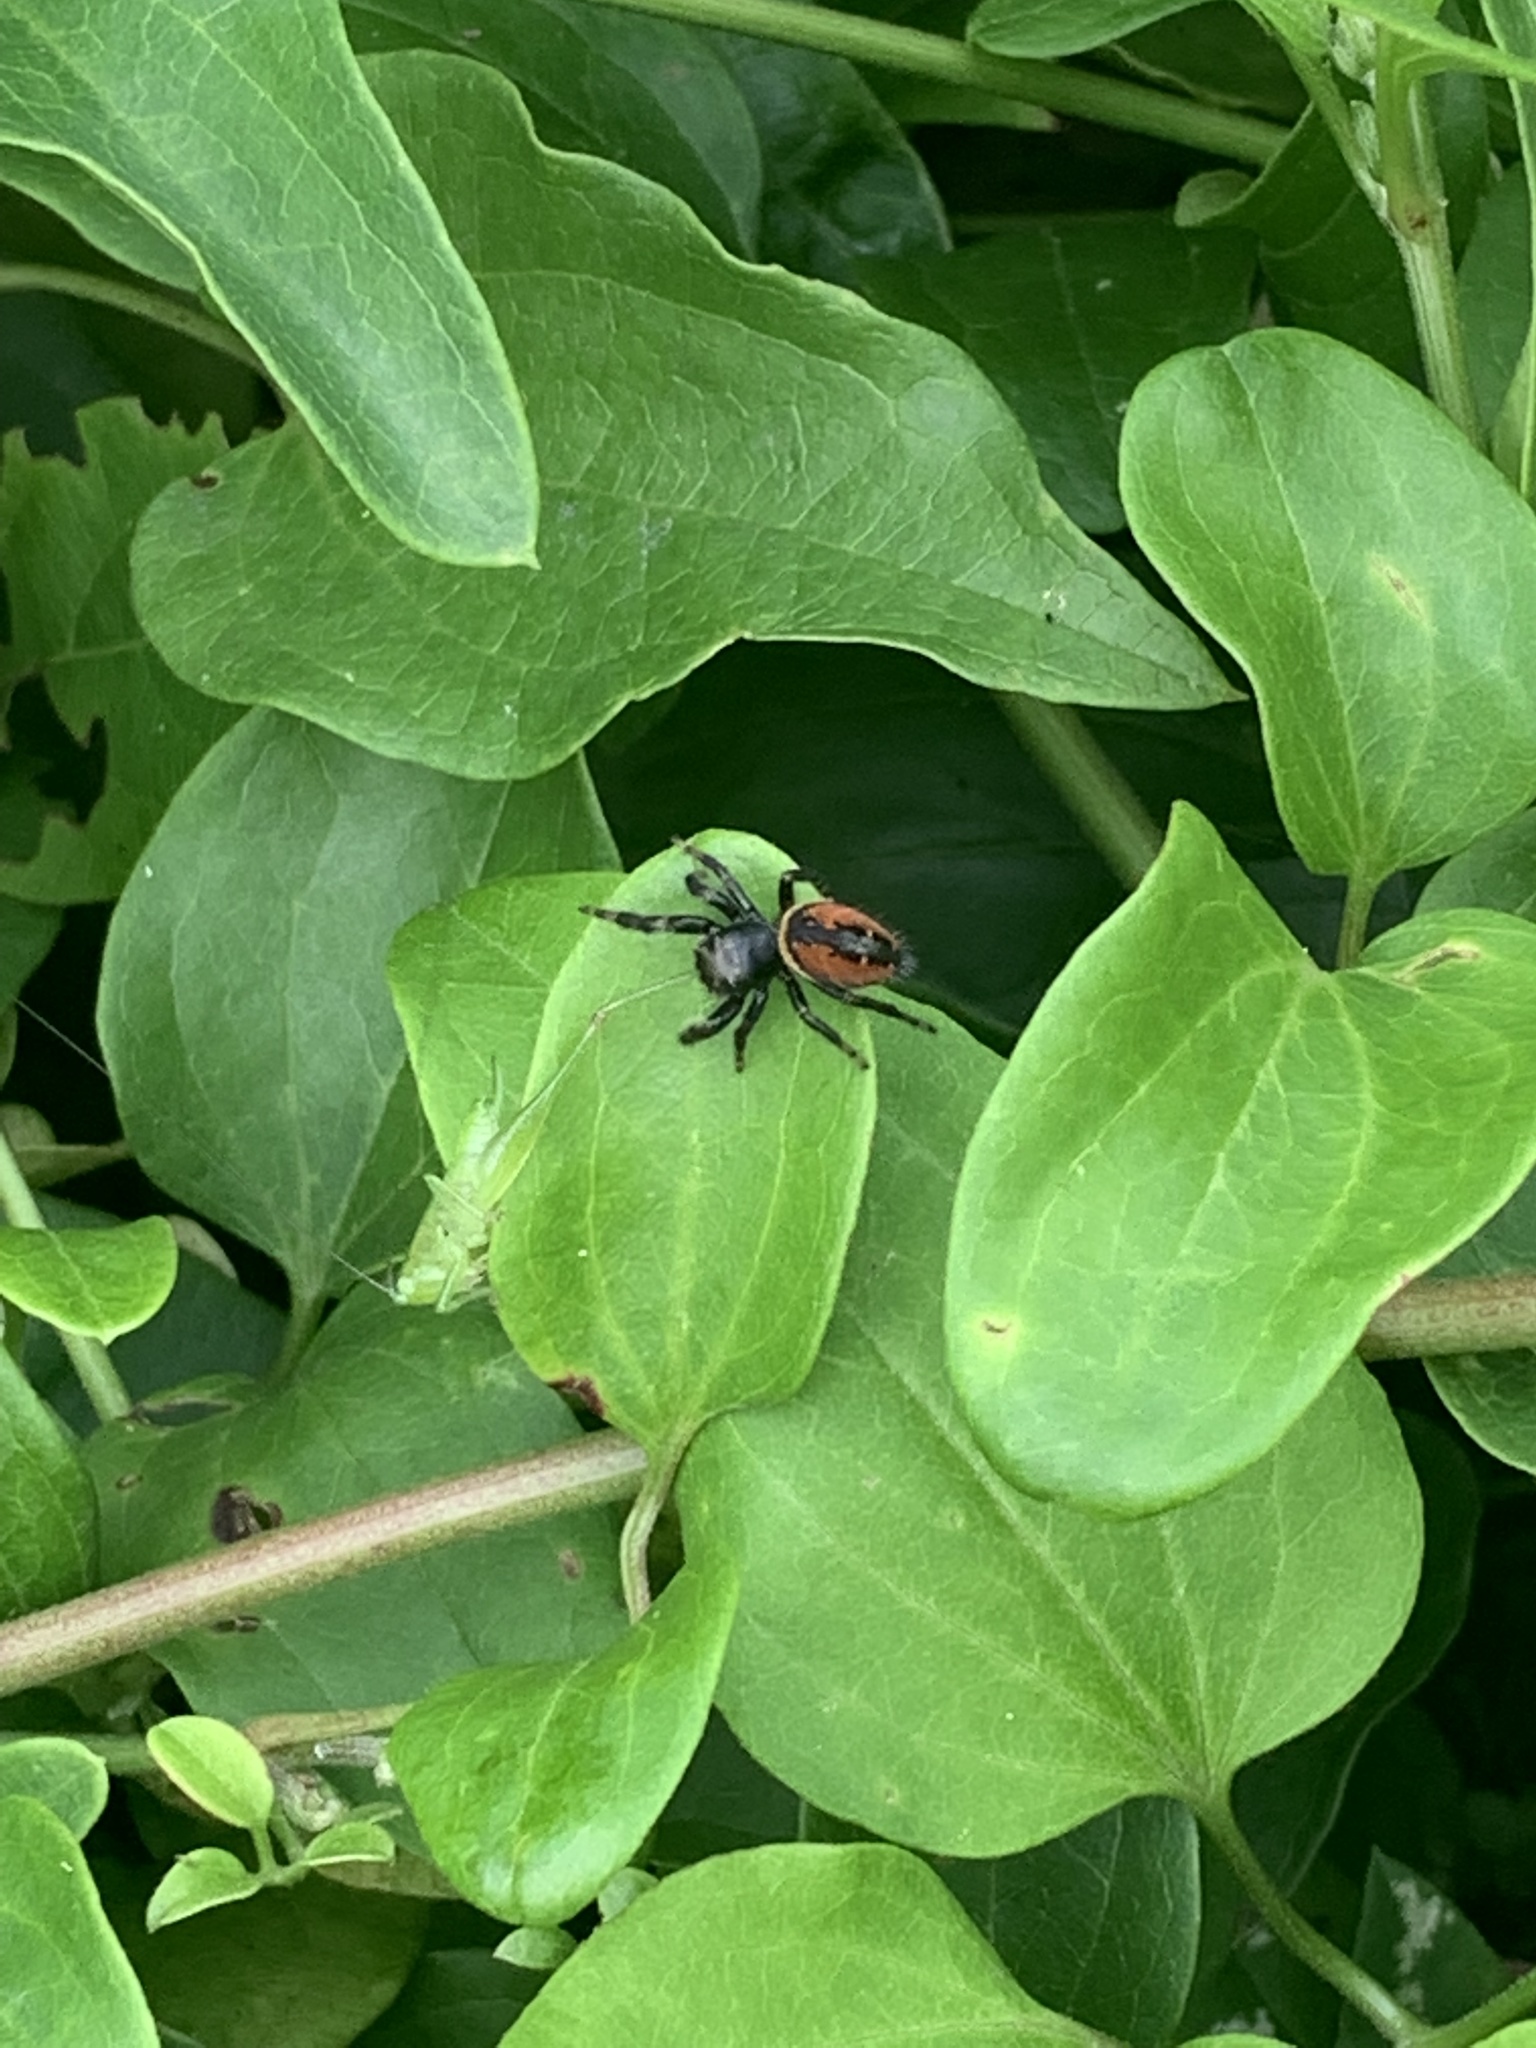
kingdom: Animalia
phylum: Arthropoda
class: Arachnida
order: Araneae
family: Salticidae
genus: Phidippus
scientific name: Phidippus clarus
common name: Brilliant jumping spider
